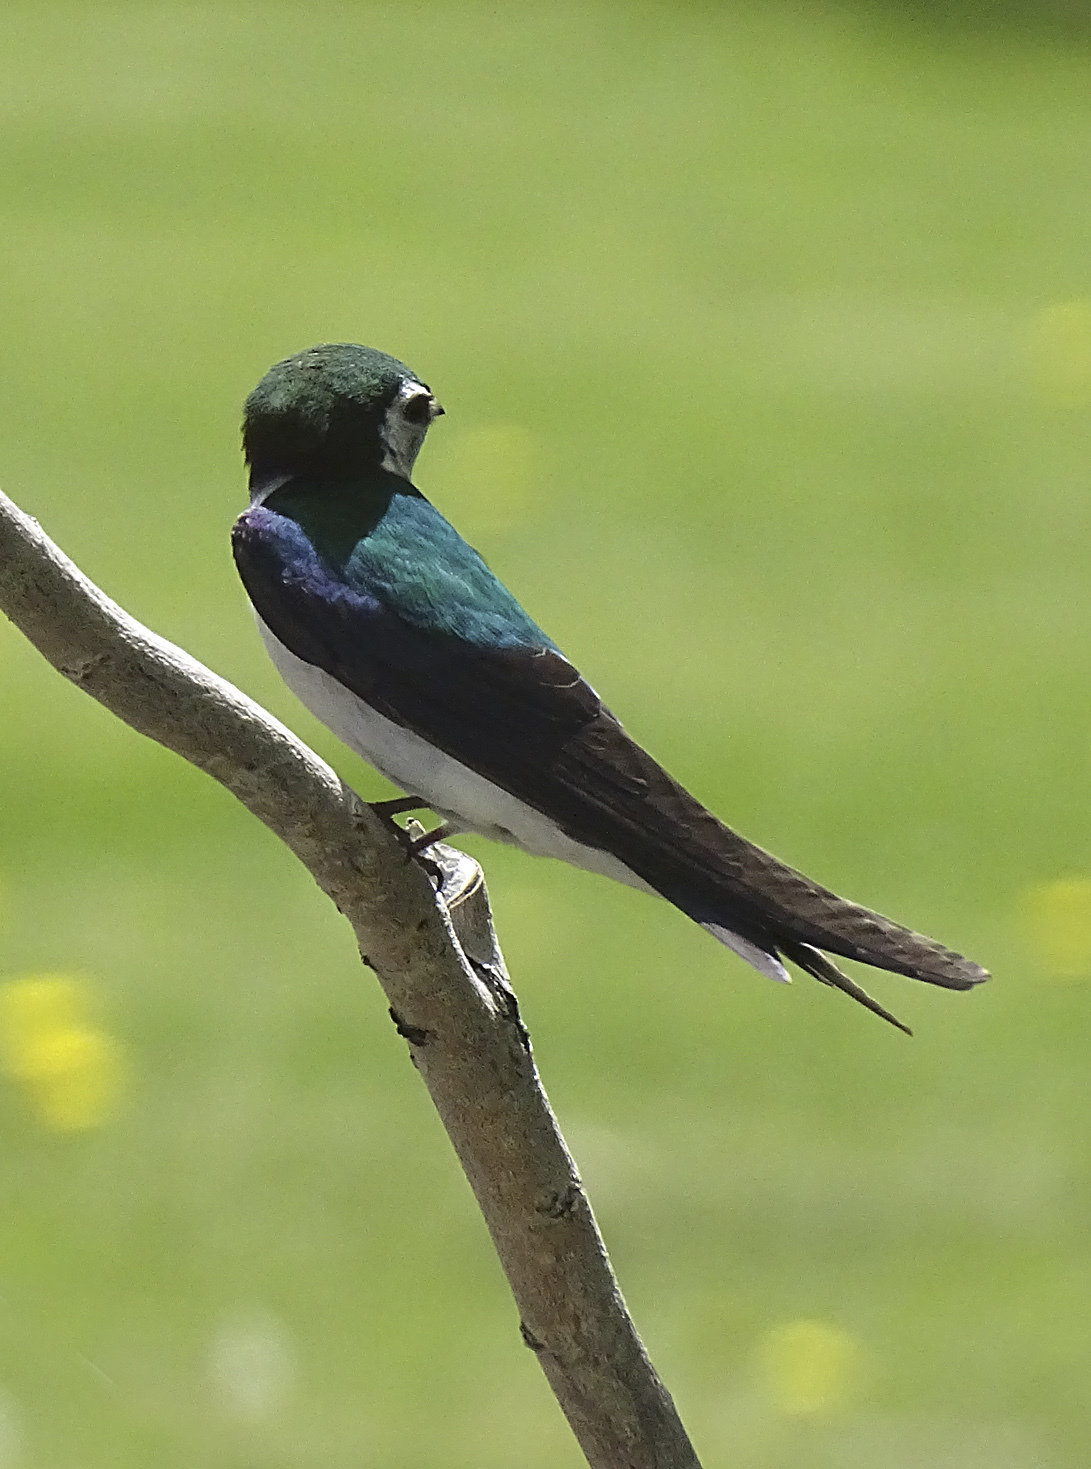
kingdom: Animalia
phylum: Chordata
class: Aves
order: Passeriformes
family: Hirundinidae
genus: Tachycineta
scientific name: Tachycineta thalassina
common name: Violet-green swallow
